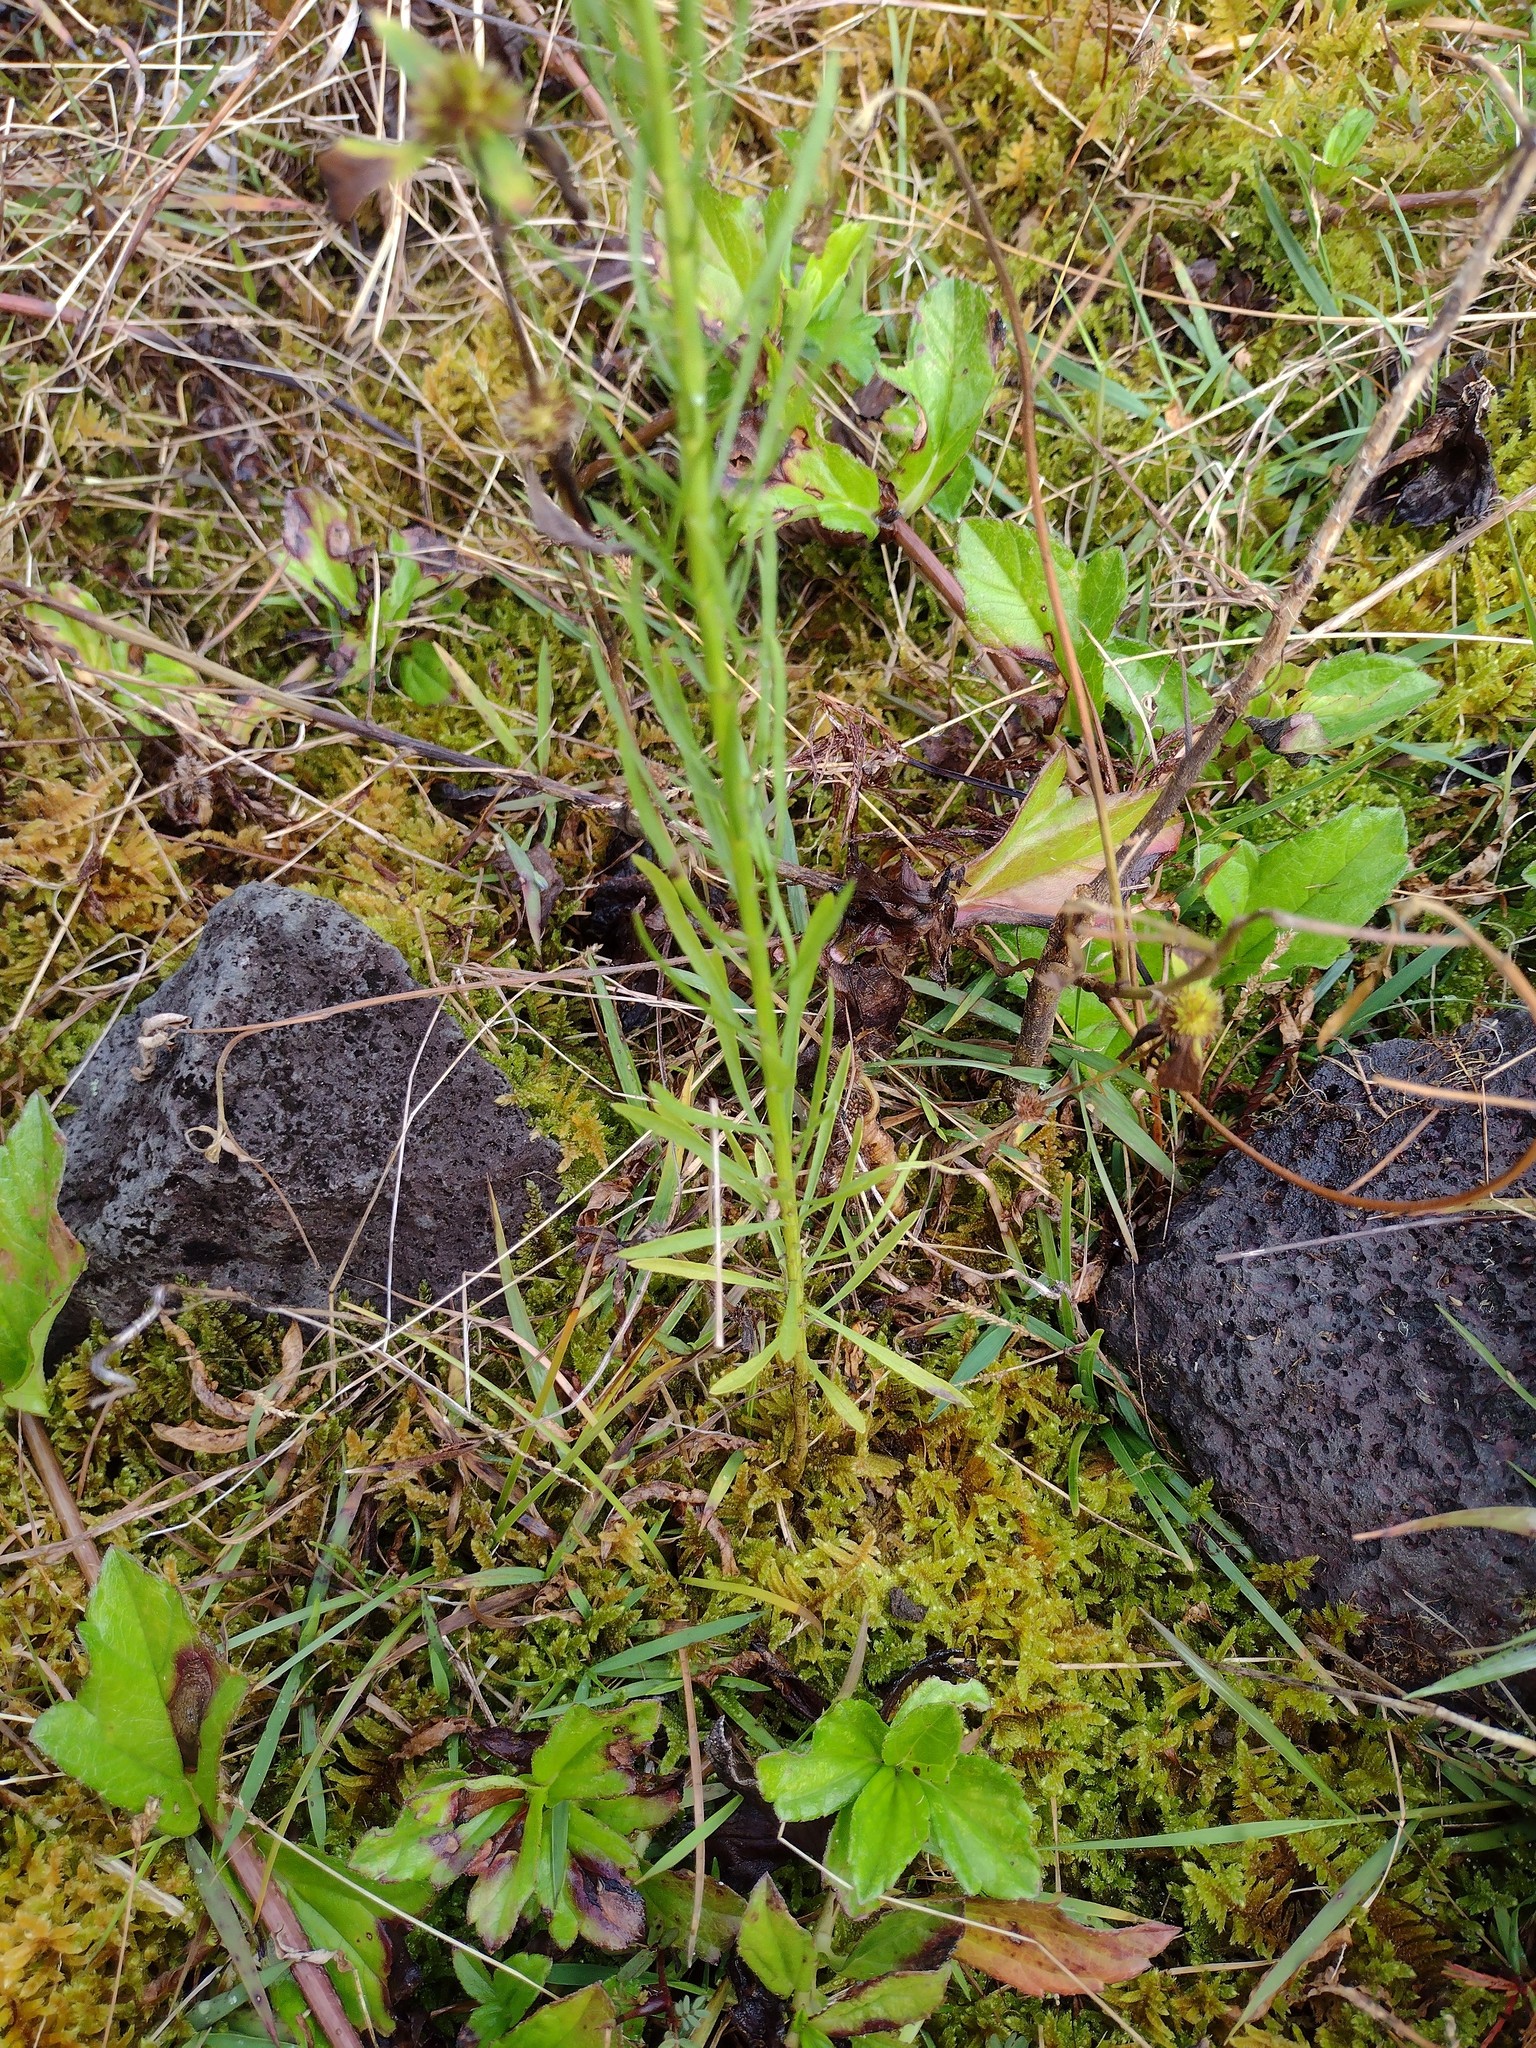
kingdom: Plantae
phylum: Tracheophyta
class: Magnoliopsida
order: Asterales
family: Asteraceae
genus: Erigeron
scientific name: Erigeron canadensis
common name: Canadian fleabane
